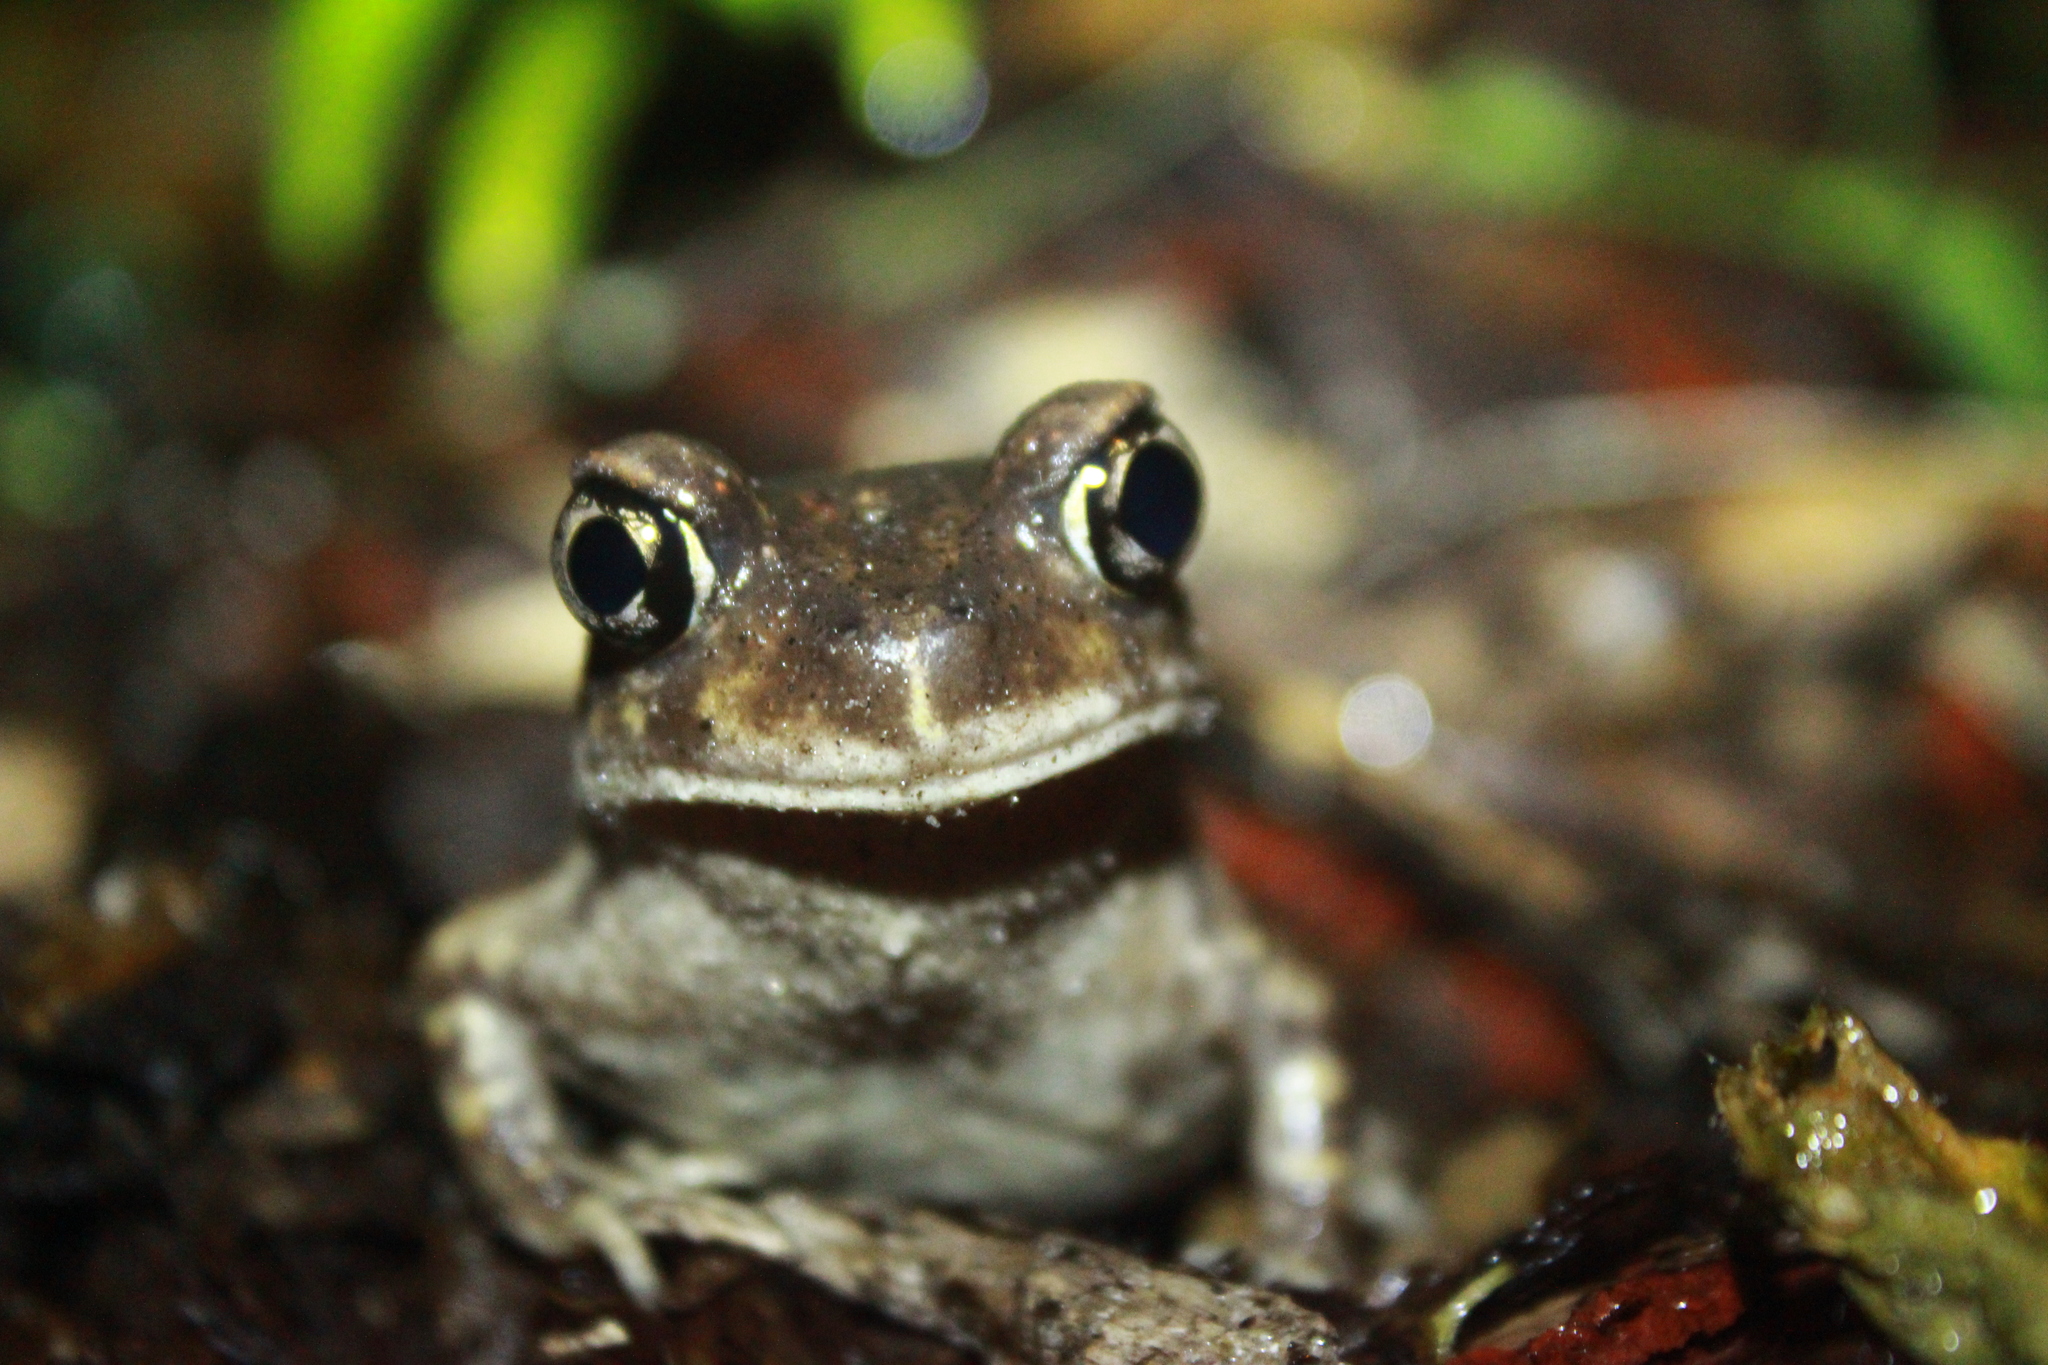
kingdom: Animalia
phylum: Chordata
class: Amphibia
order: Anura
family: Scaphiopodidae
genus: Scaphiopus
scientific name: Scaphiopus holbrookii
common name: Eastern spadefoot toad
